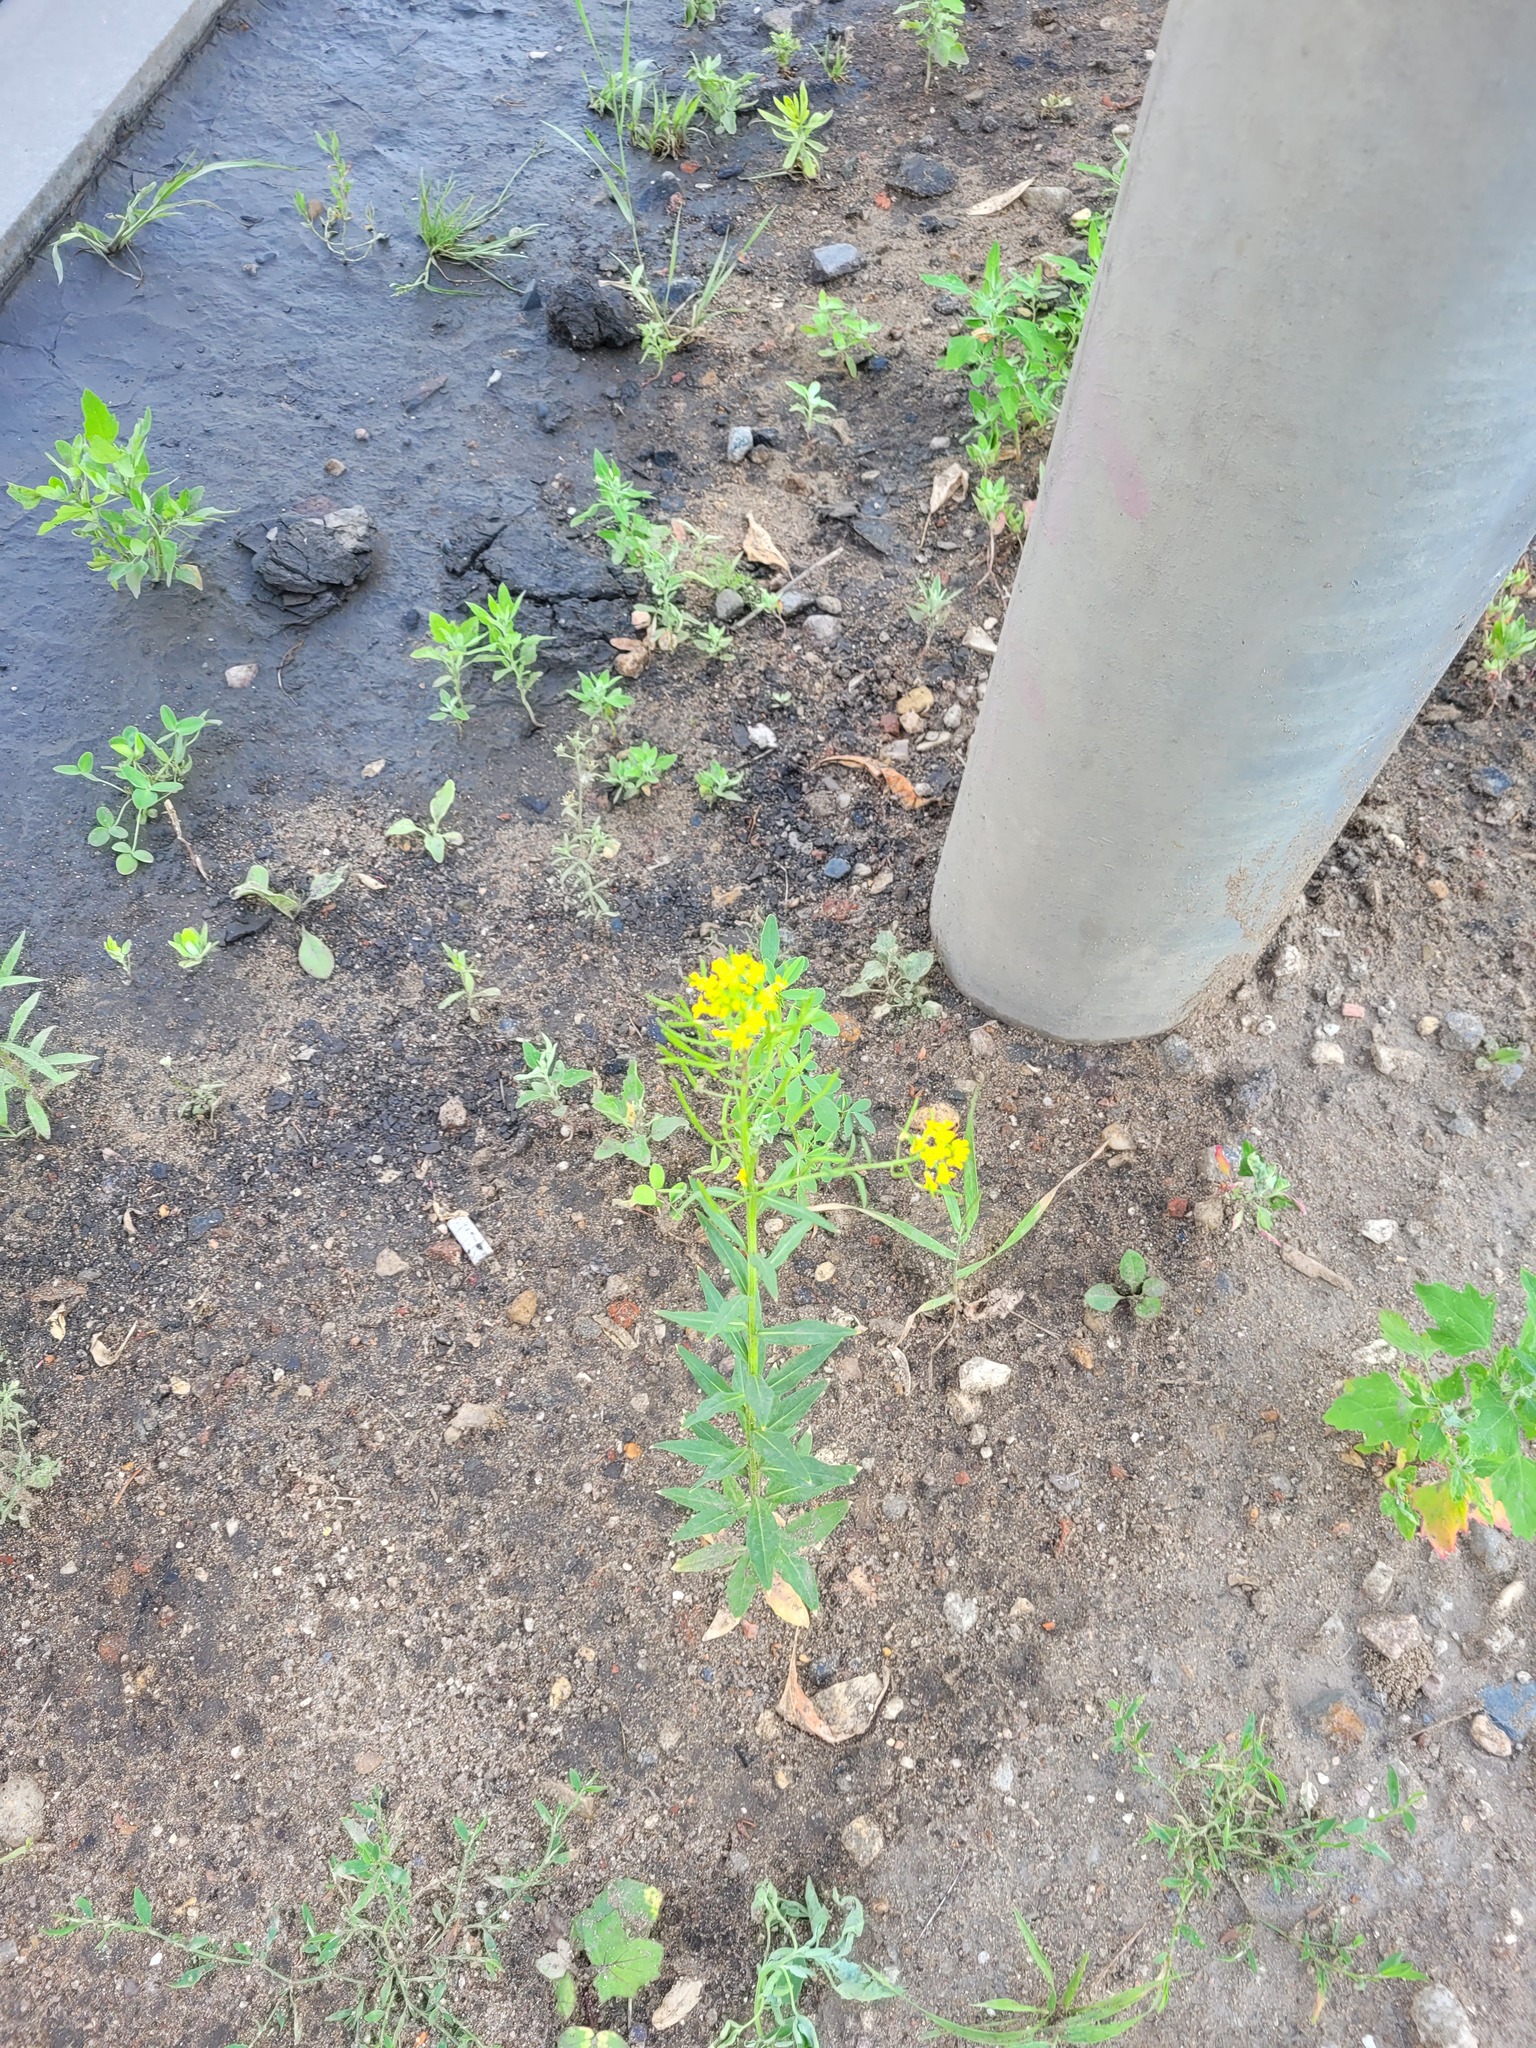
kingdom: Plantae
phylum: Tracheophyta
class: Magnoliopsida
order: Brassicales
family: Brassicaceae
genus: Erysimum
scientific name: Erysimum cheiranthoides
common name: Treacle mustard
